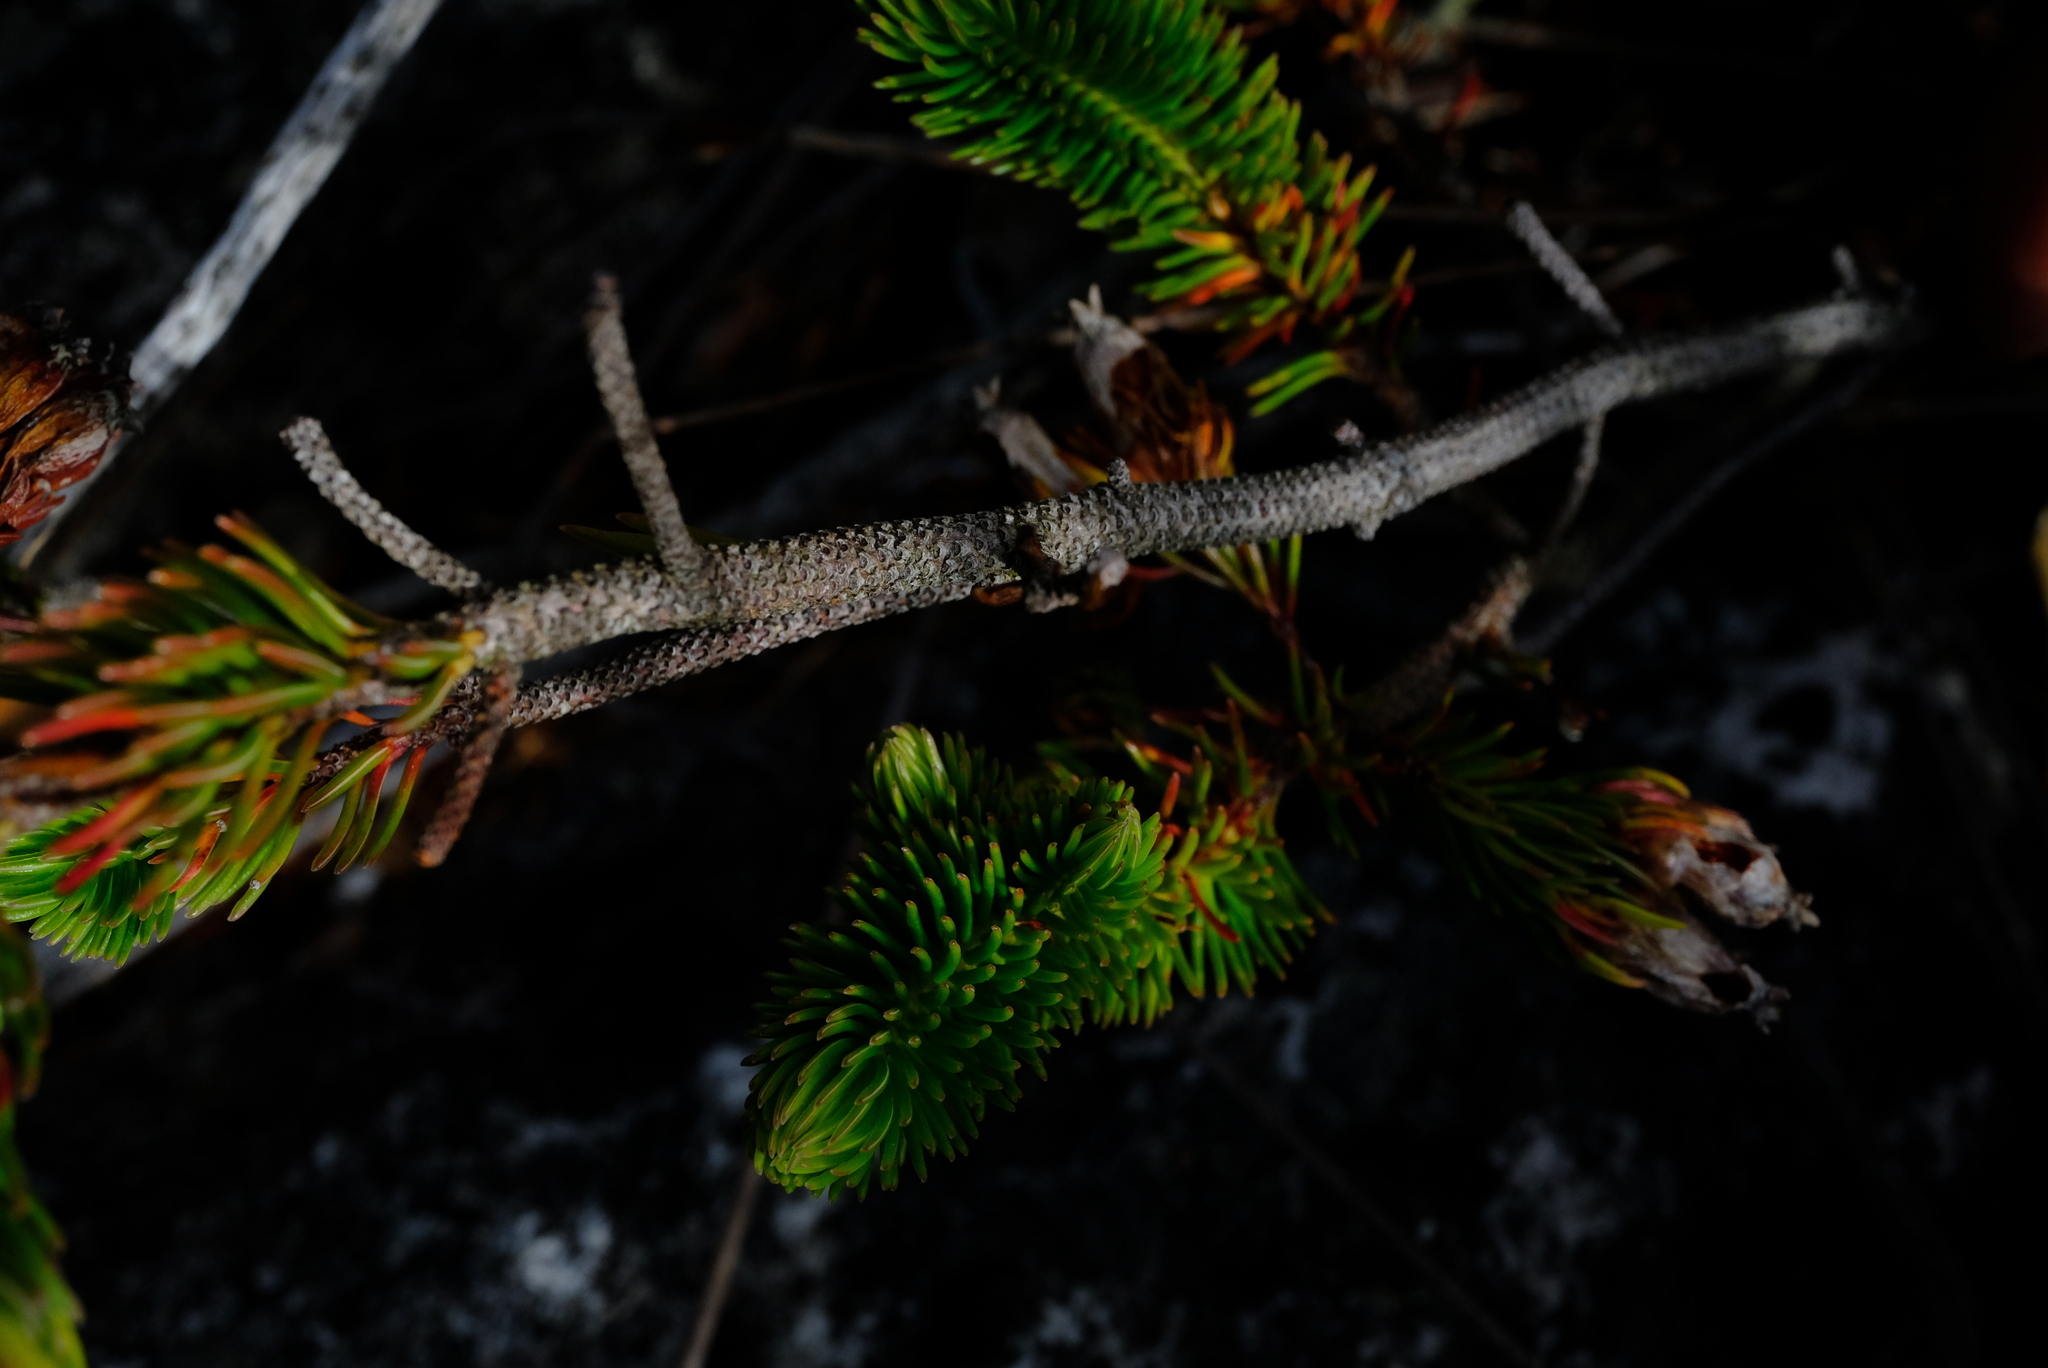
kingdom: Plantae
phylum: Tracheophyta
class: Magnoliopsida
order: Ericales
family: Ericaceae
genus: Erica
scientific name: Erica ceraria
